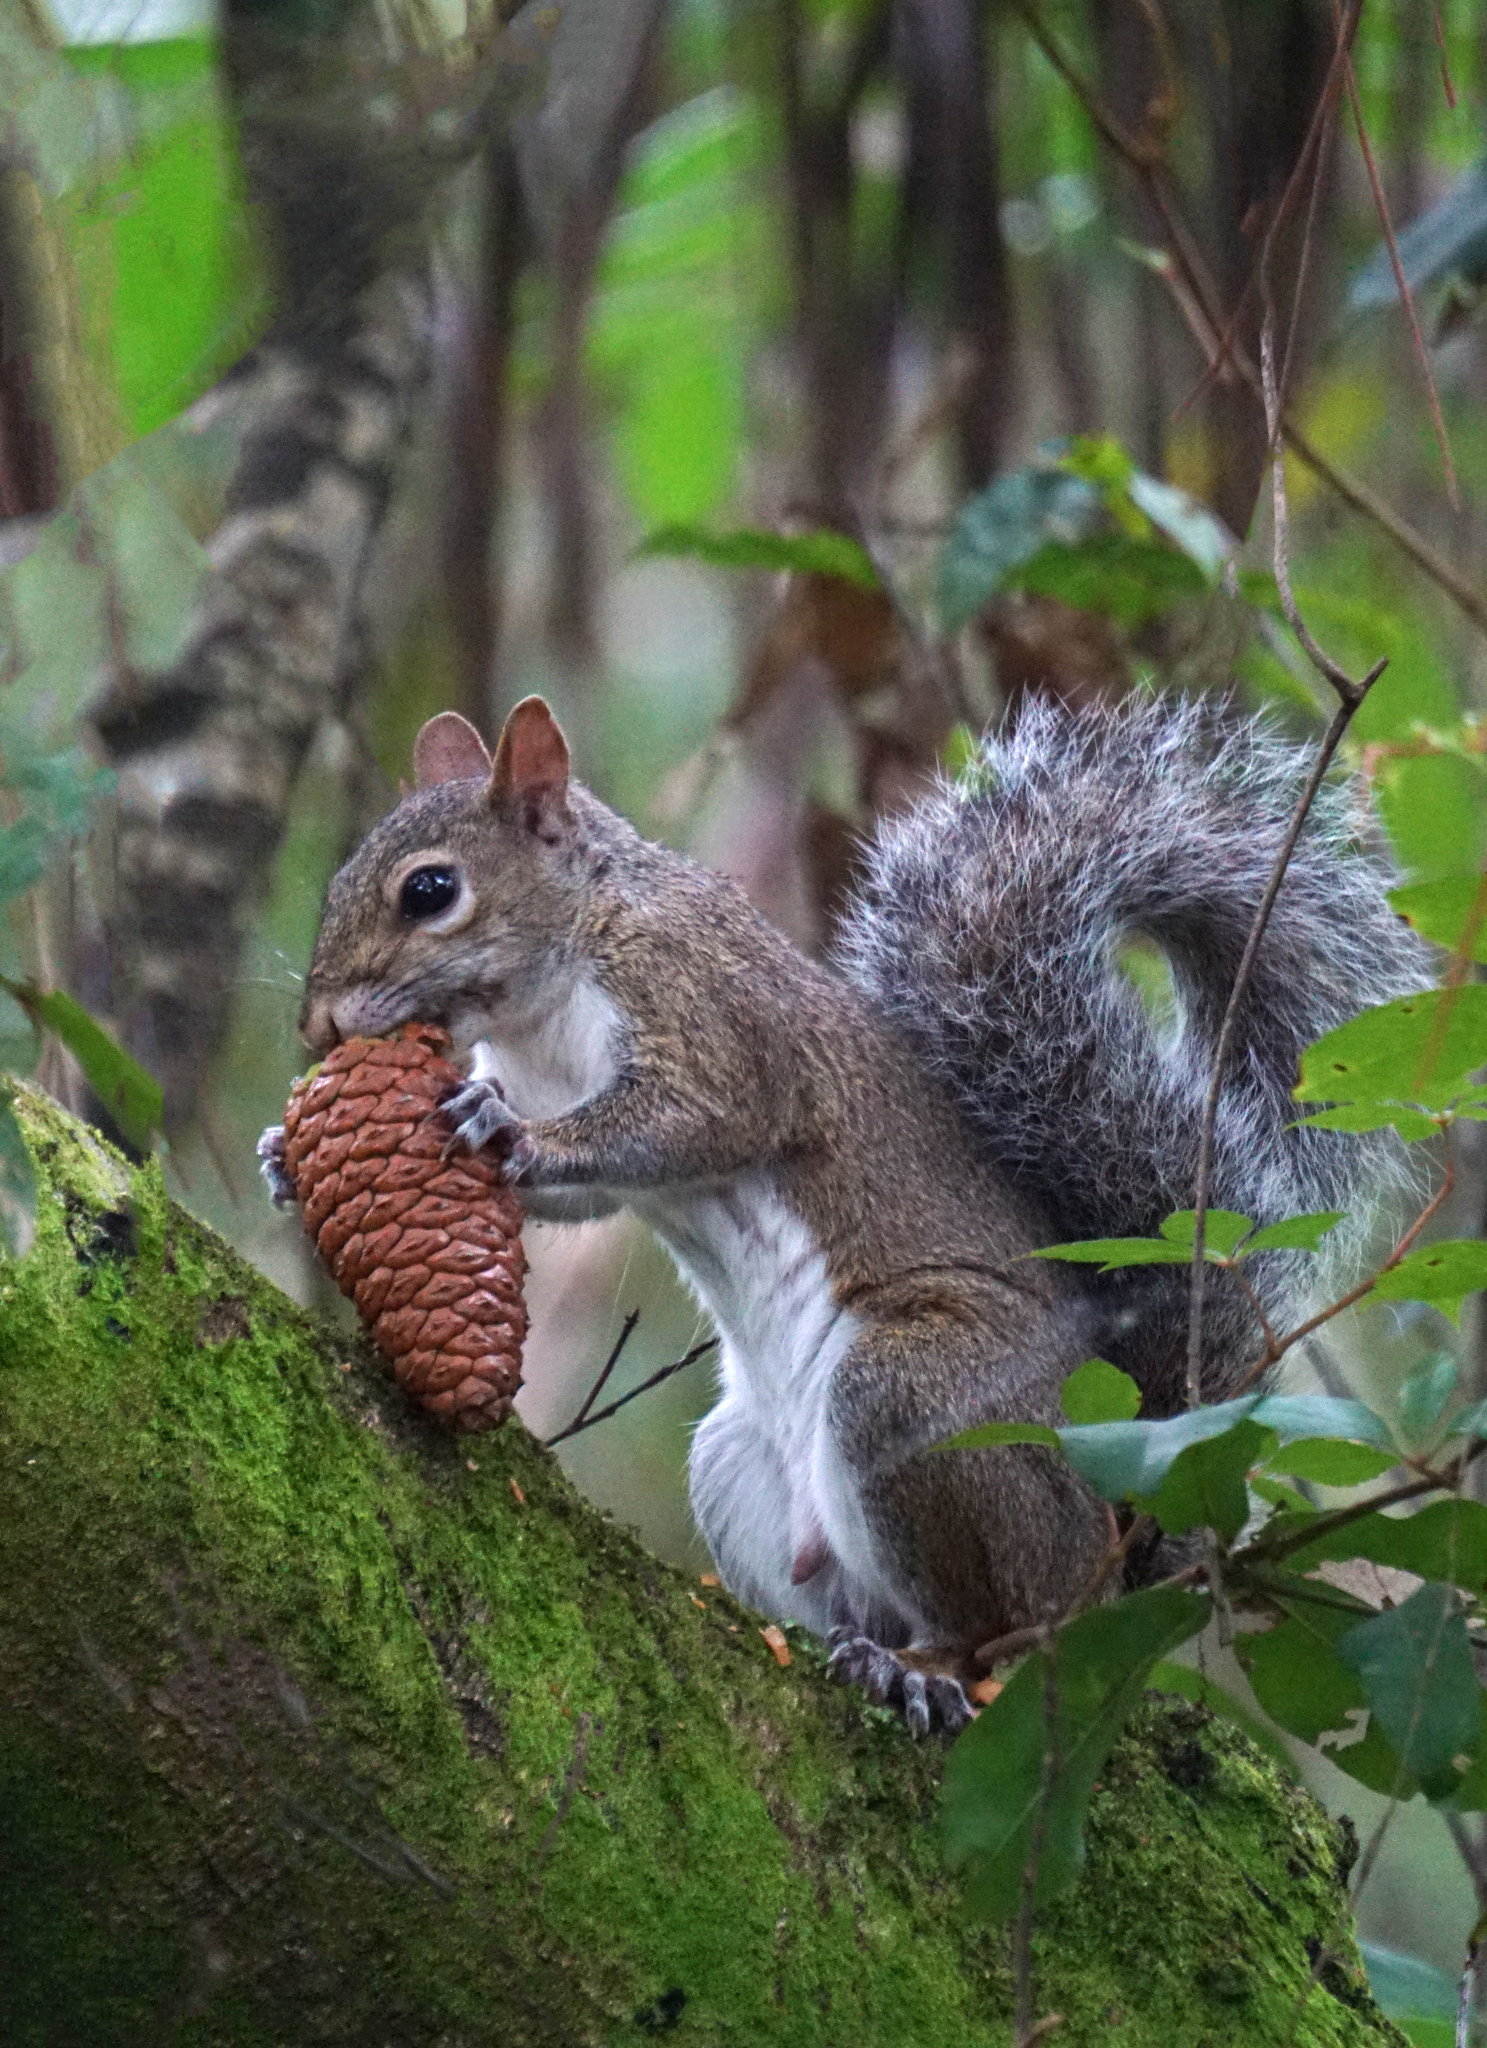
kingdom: Animalia
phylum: Chordata
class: Mammalia
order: Rodentia
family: Sciuridae
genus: Sciurus
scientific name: Sciurus carolinensis
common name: Eastern gray squirrel
